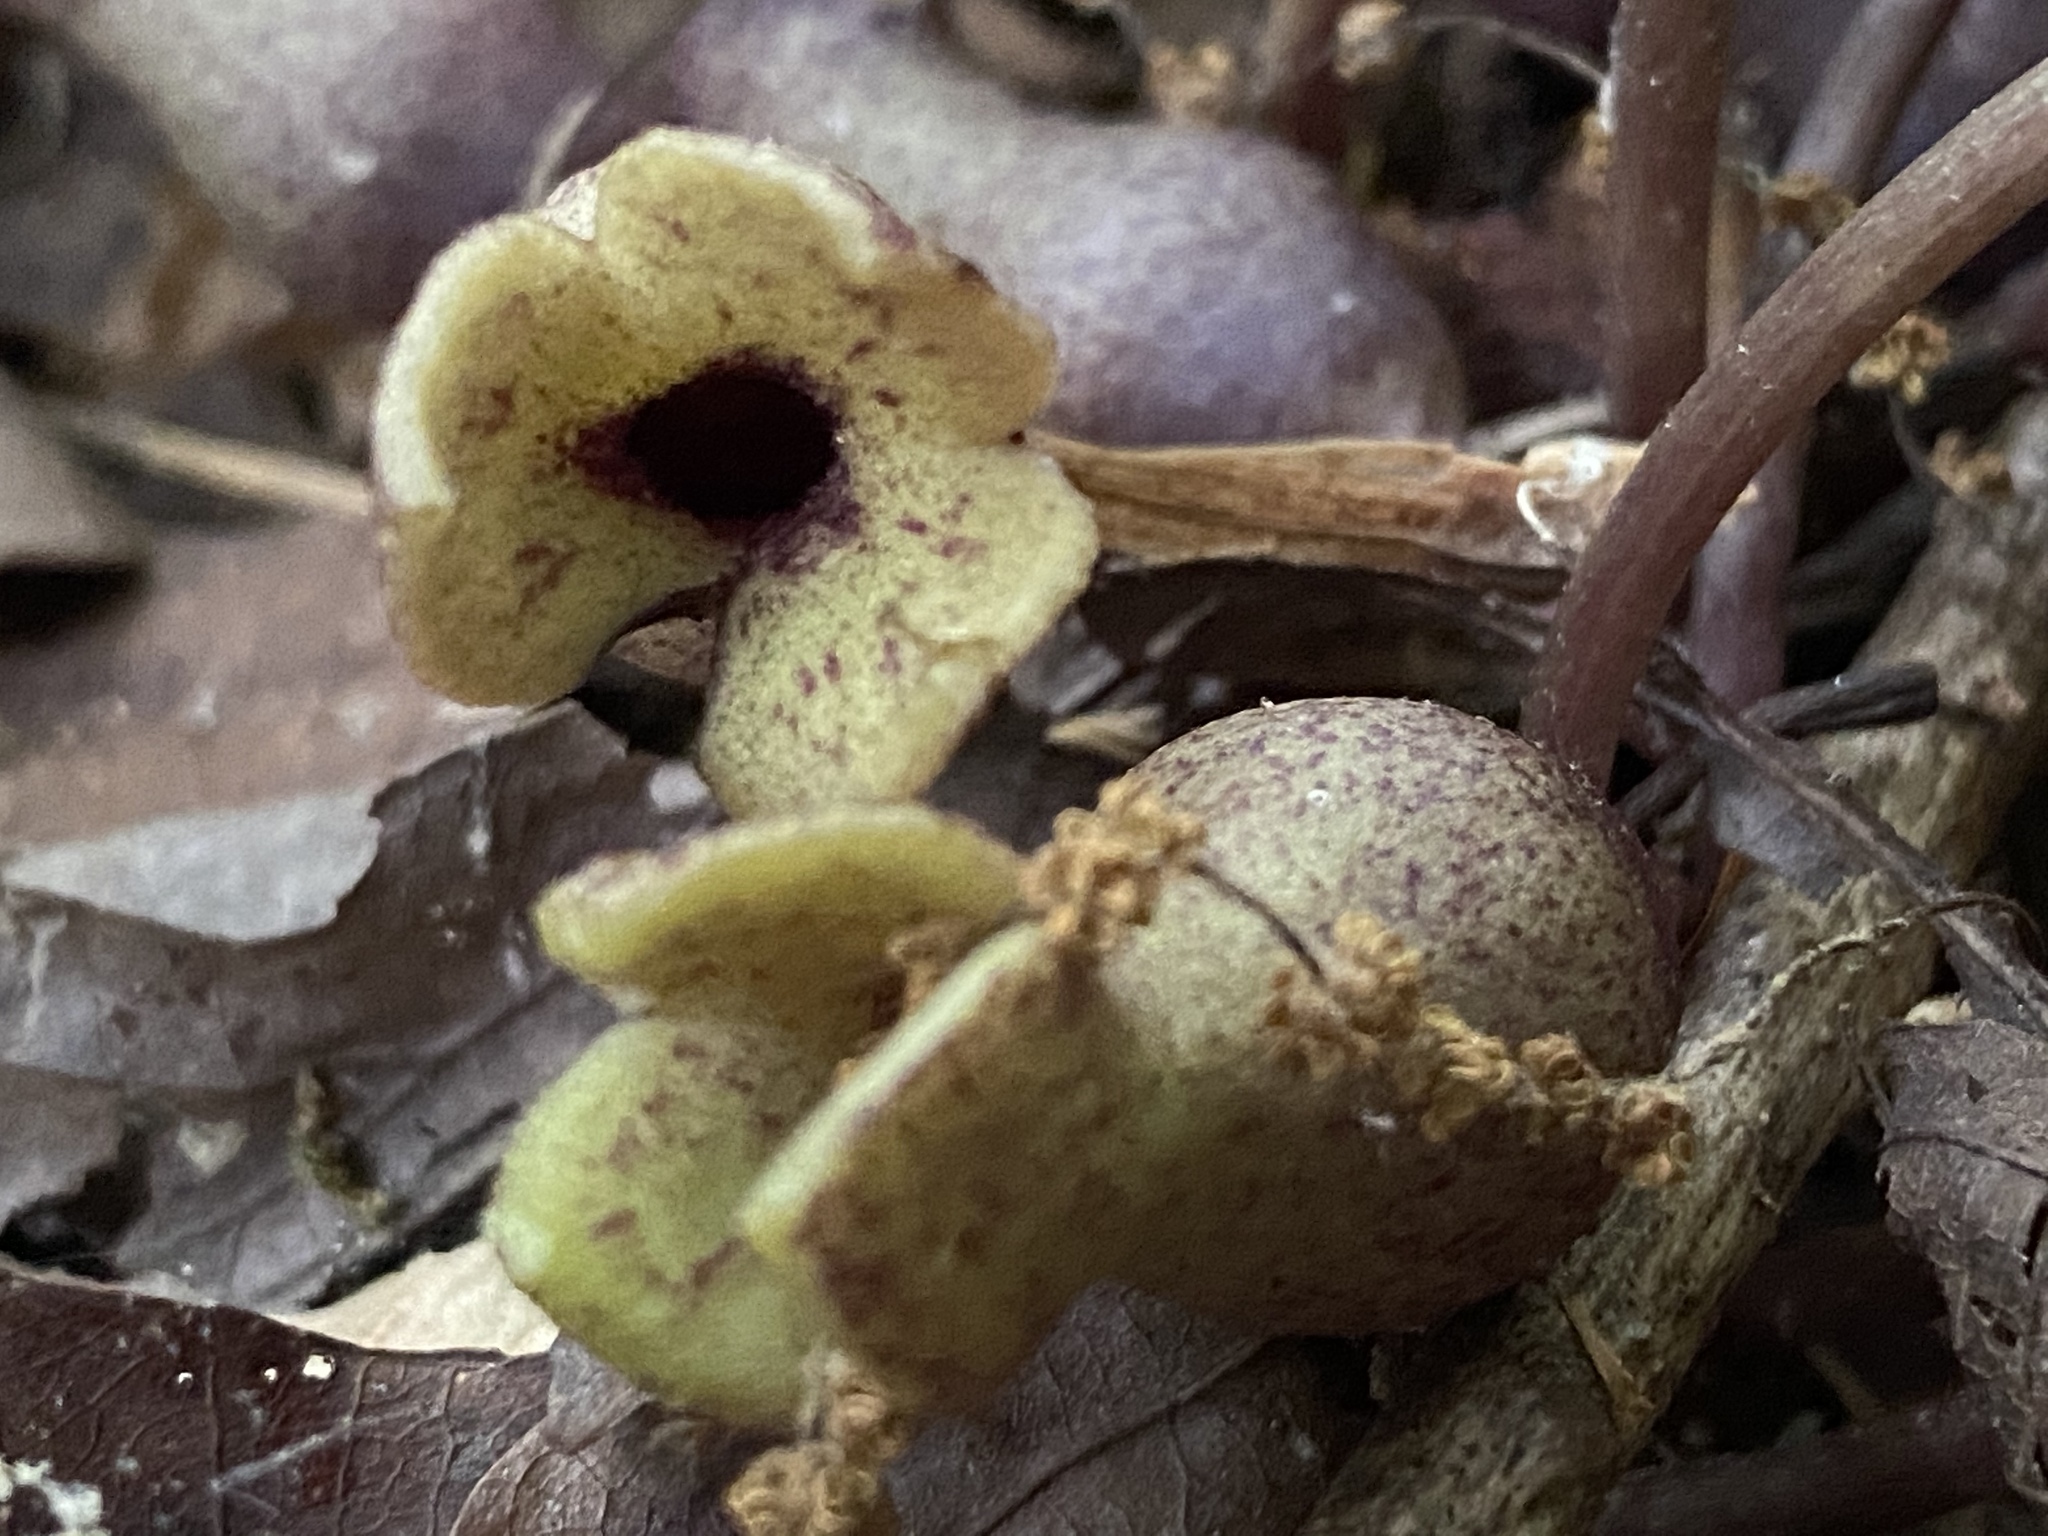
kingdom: Plantae
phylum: Tracheophyta
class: Magnoliopsida
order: Piperales
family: Aristolochiaceae
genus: Hexastylis
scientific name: Hexastylis arifolia
